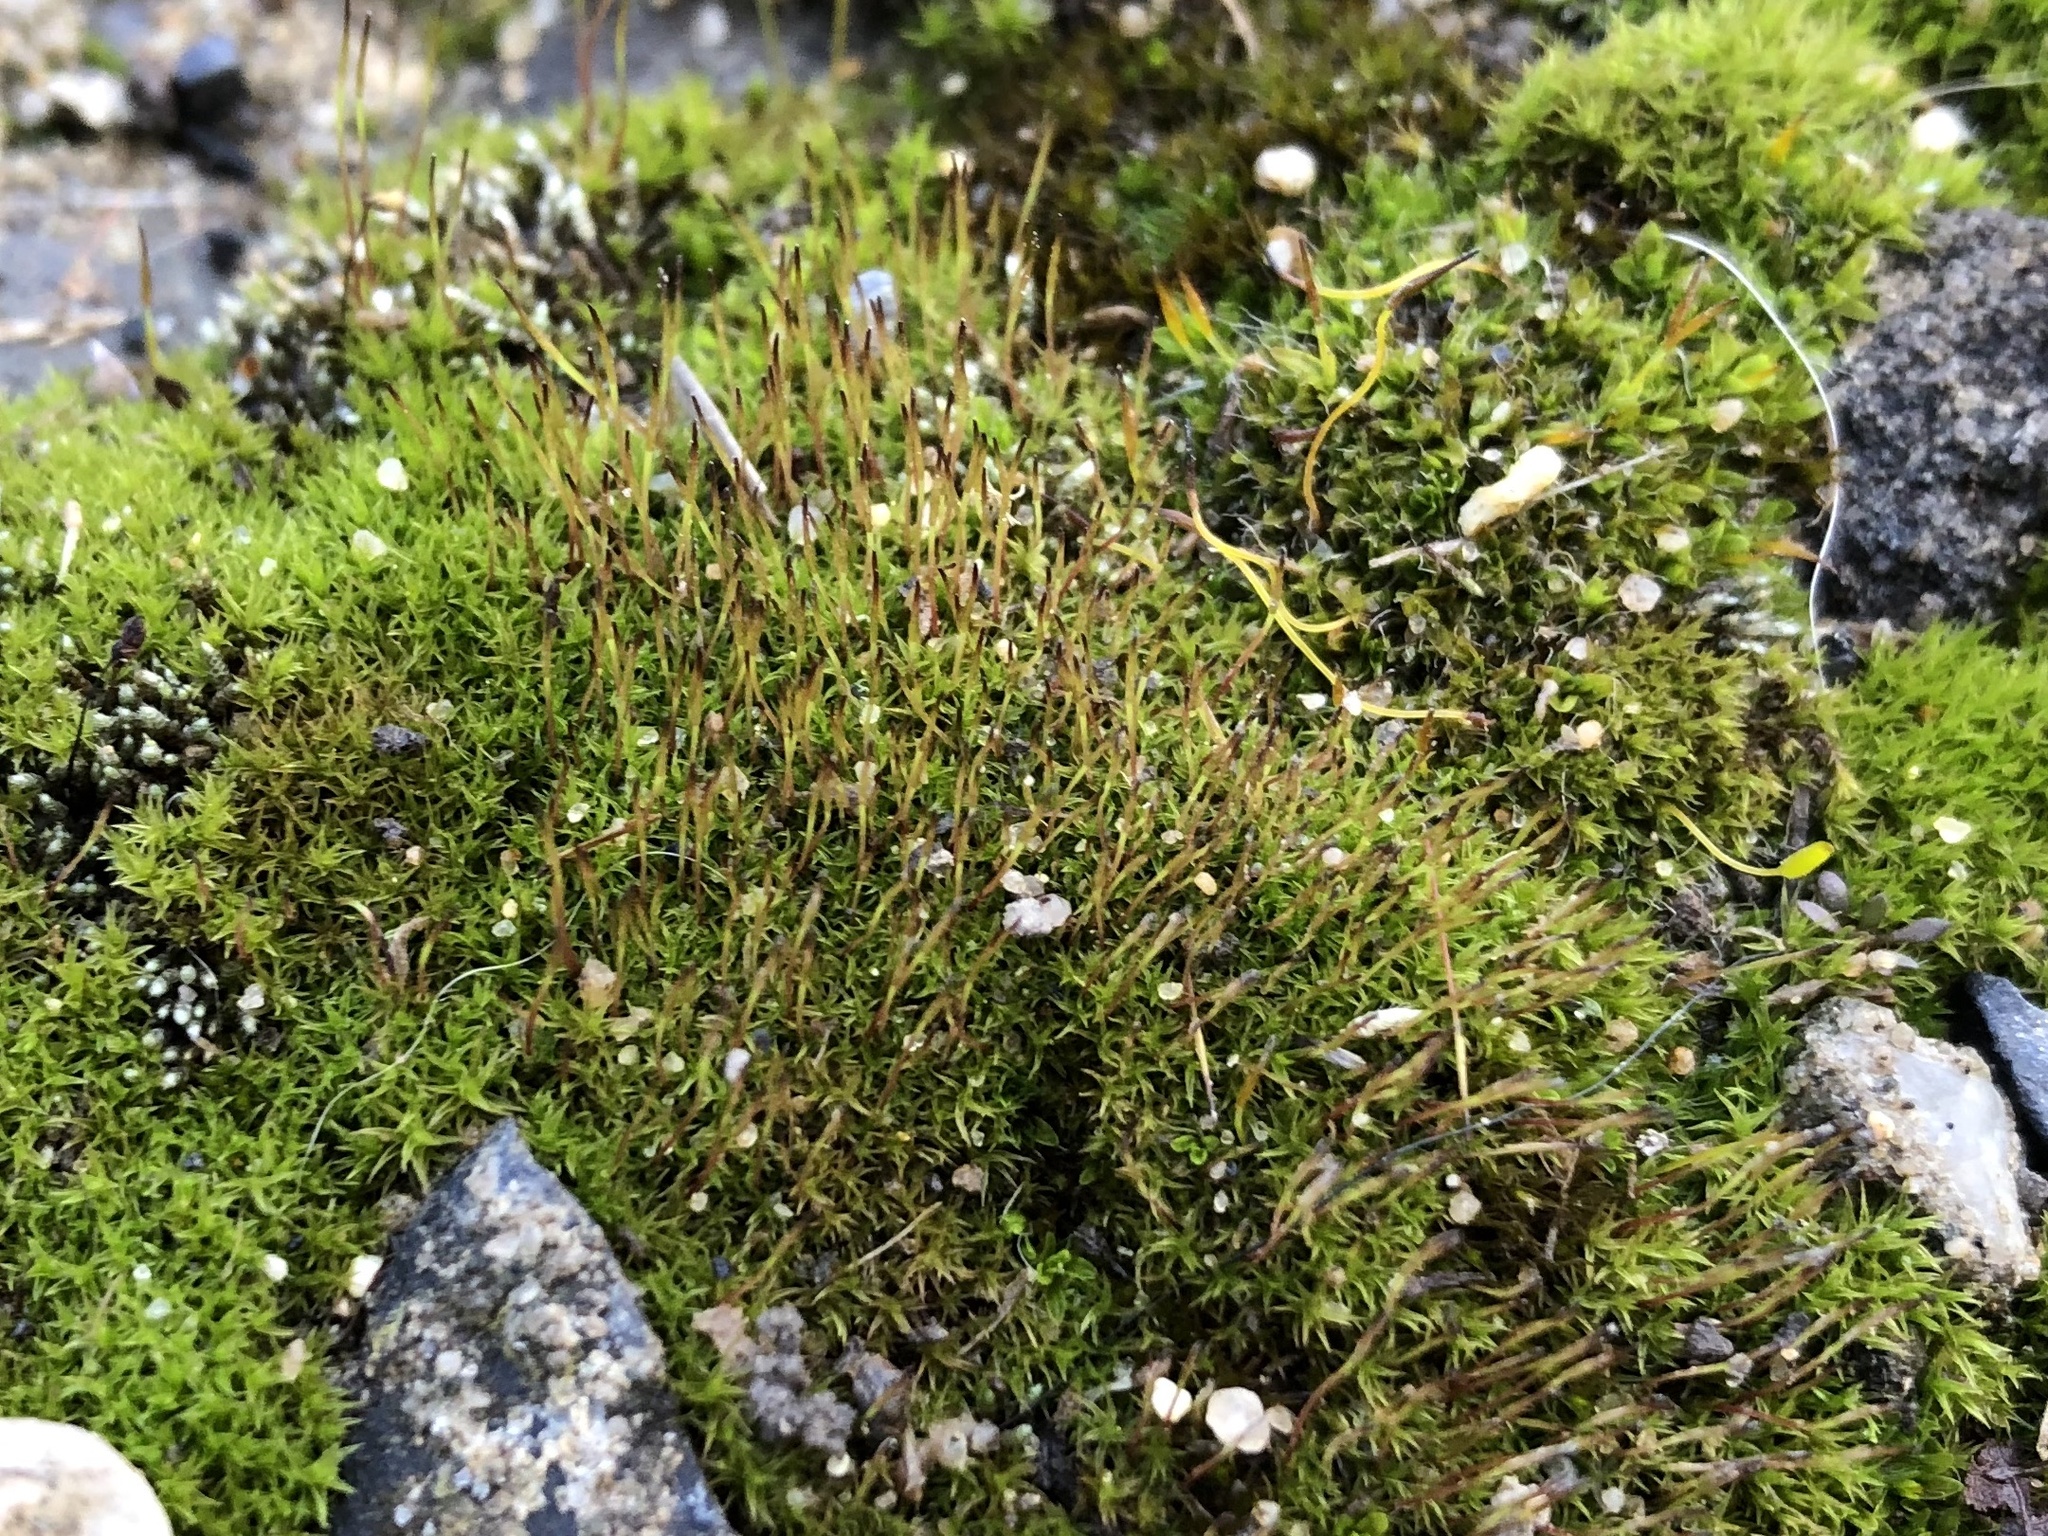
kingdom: Plantae
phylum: Bryophyta
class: Bryopsida
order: Pottiales
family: Pottiaceae
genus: Tortula
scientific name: Tortula muralis
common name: Wall screw-moss
